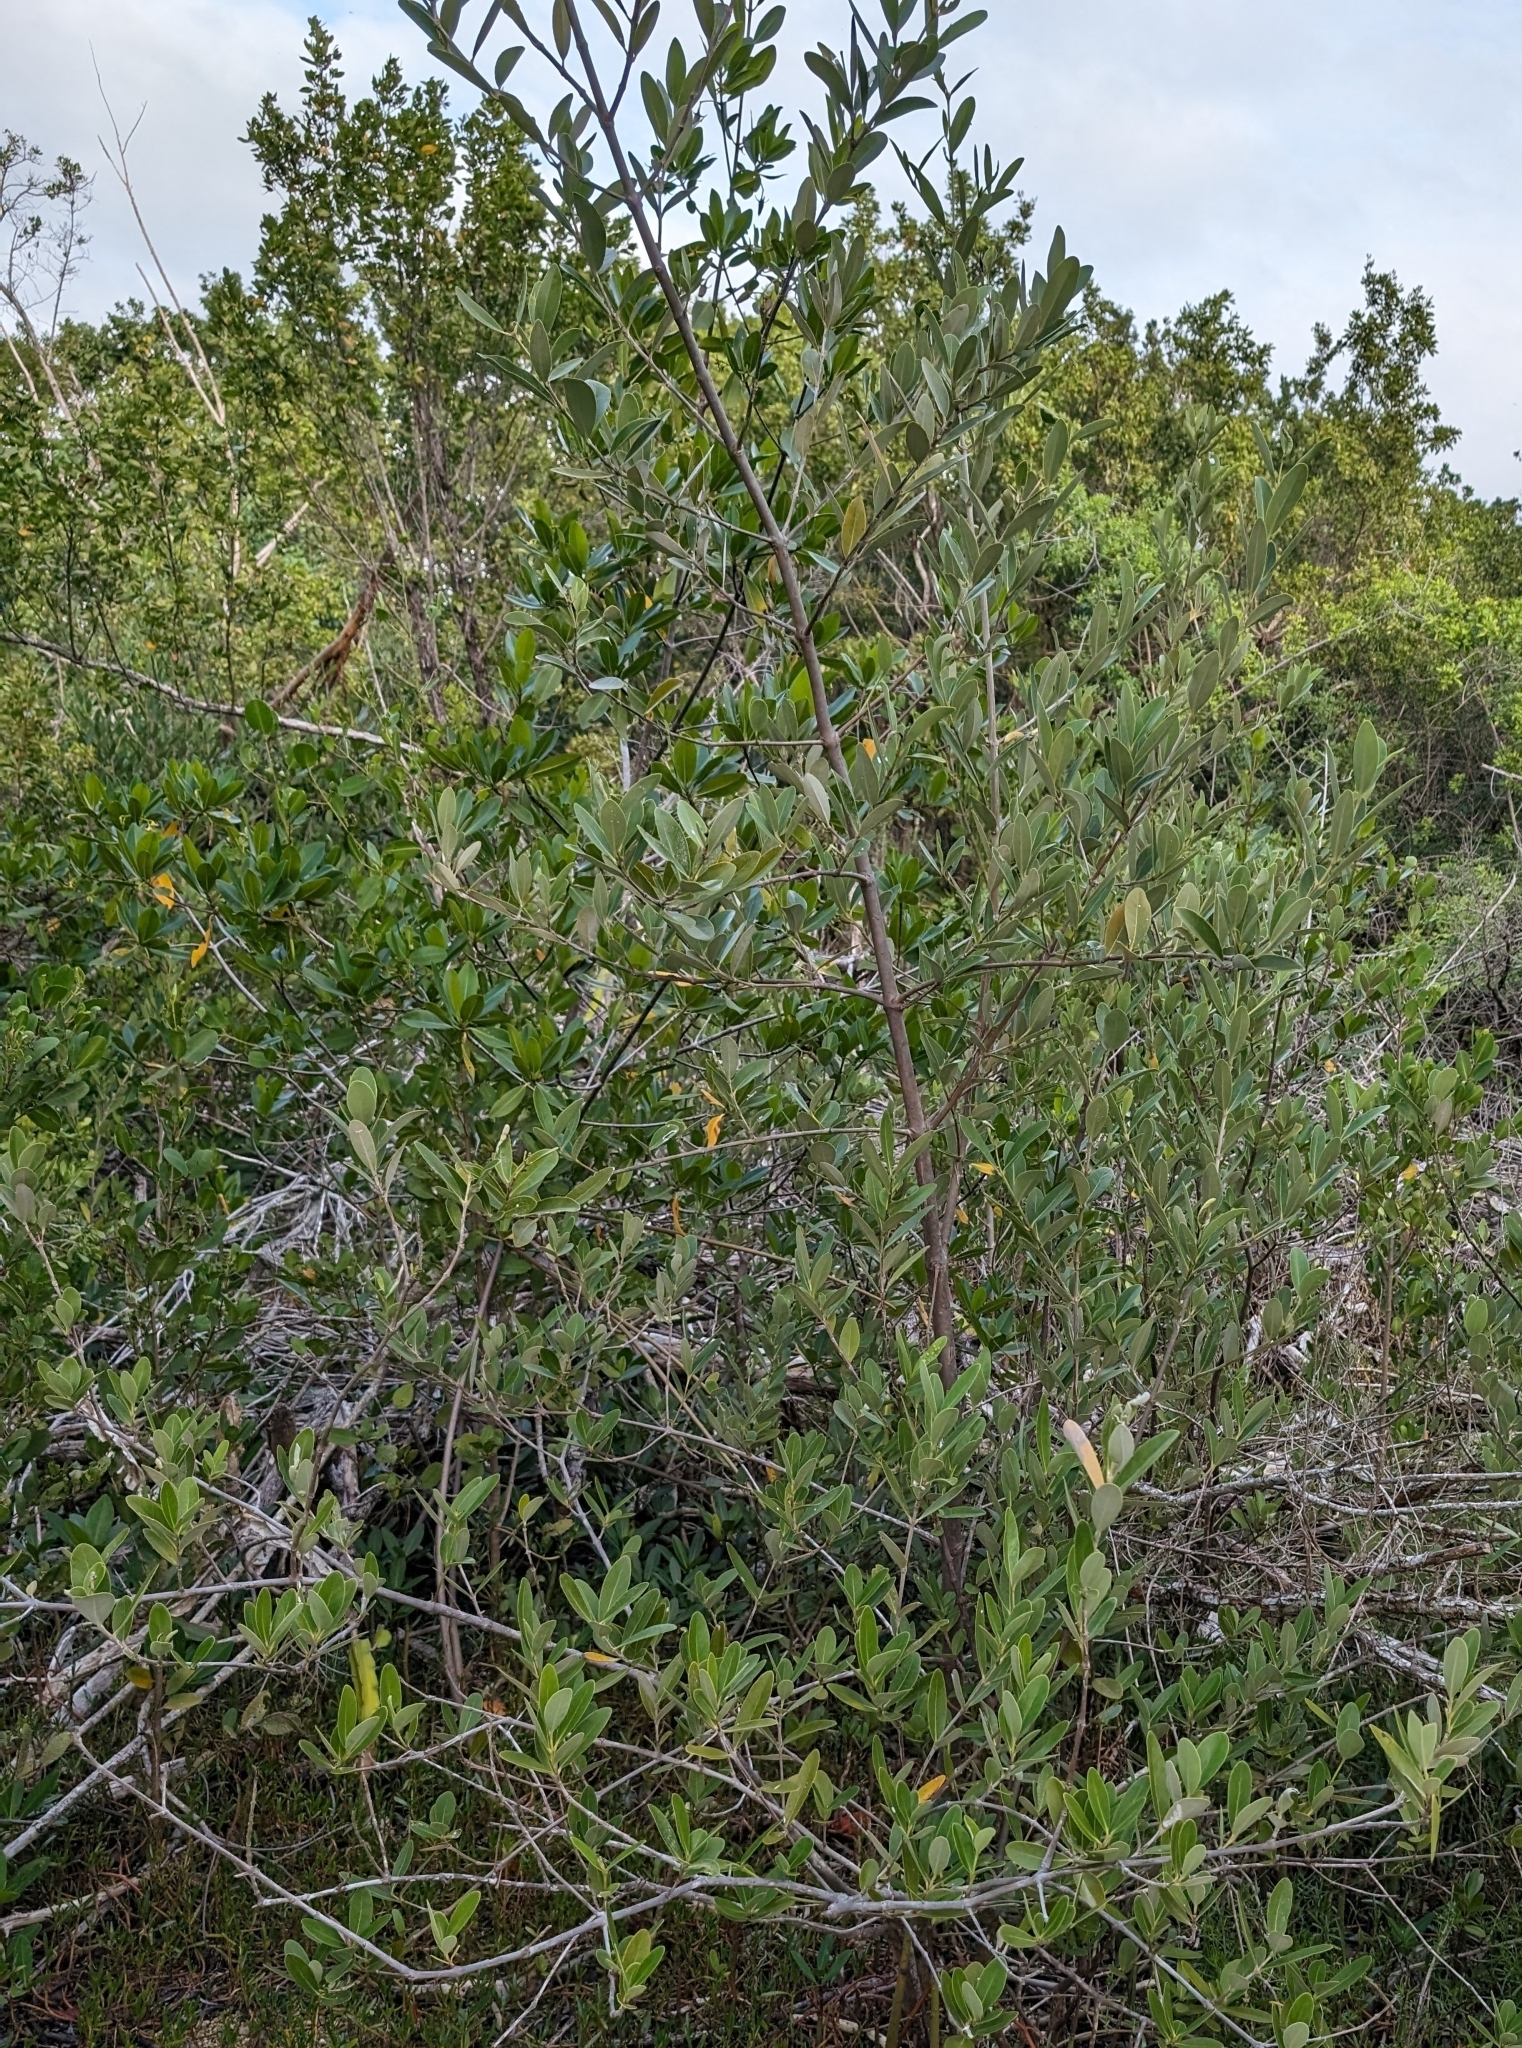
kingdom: Plantae
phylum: Tracheophyta
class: Magnoliopsida
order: Lamiales
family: Acanthaceae
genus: Avicennia
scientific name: Avicennia germinans
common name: Black mangrove
